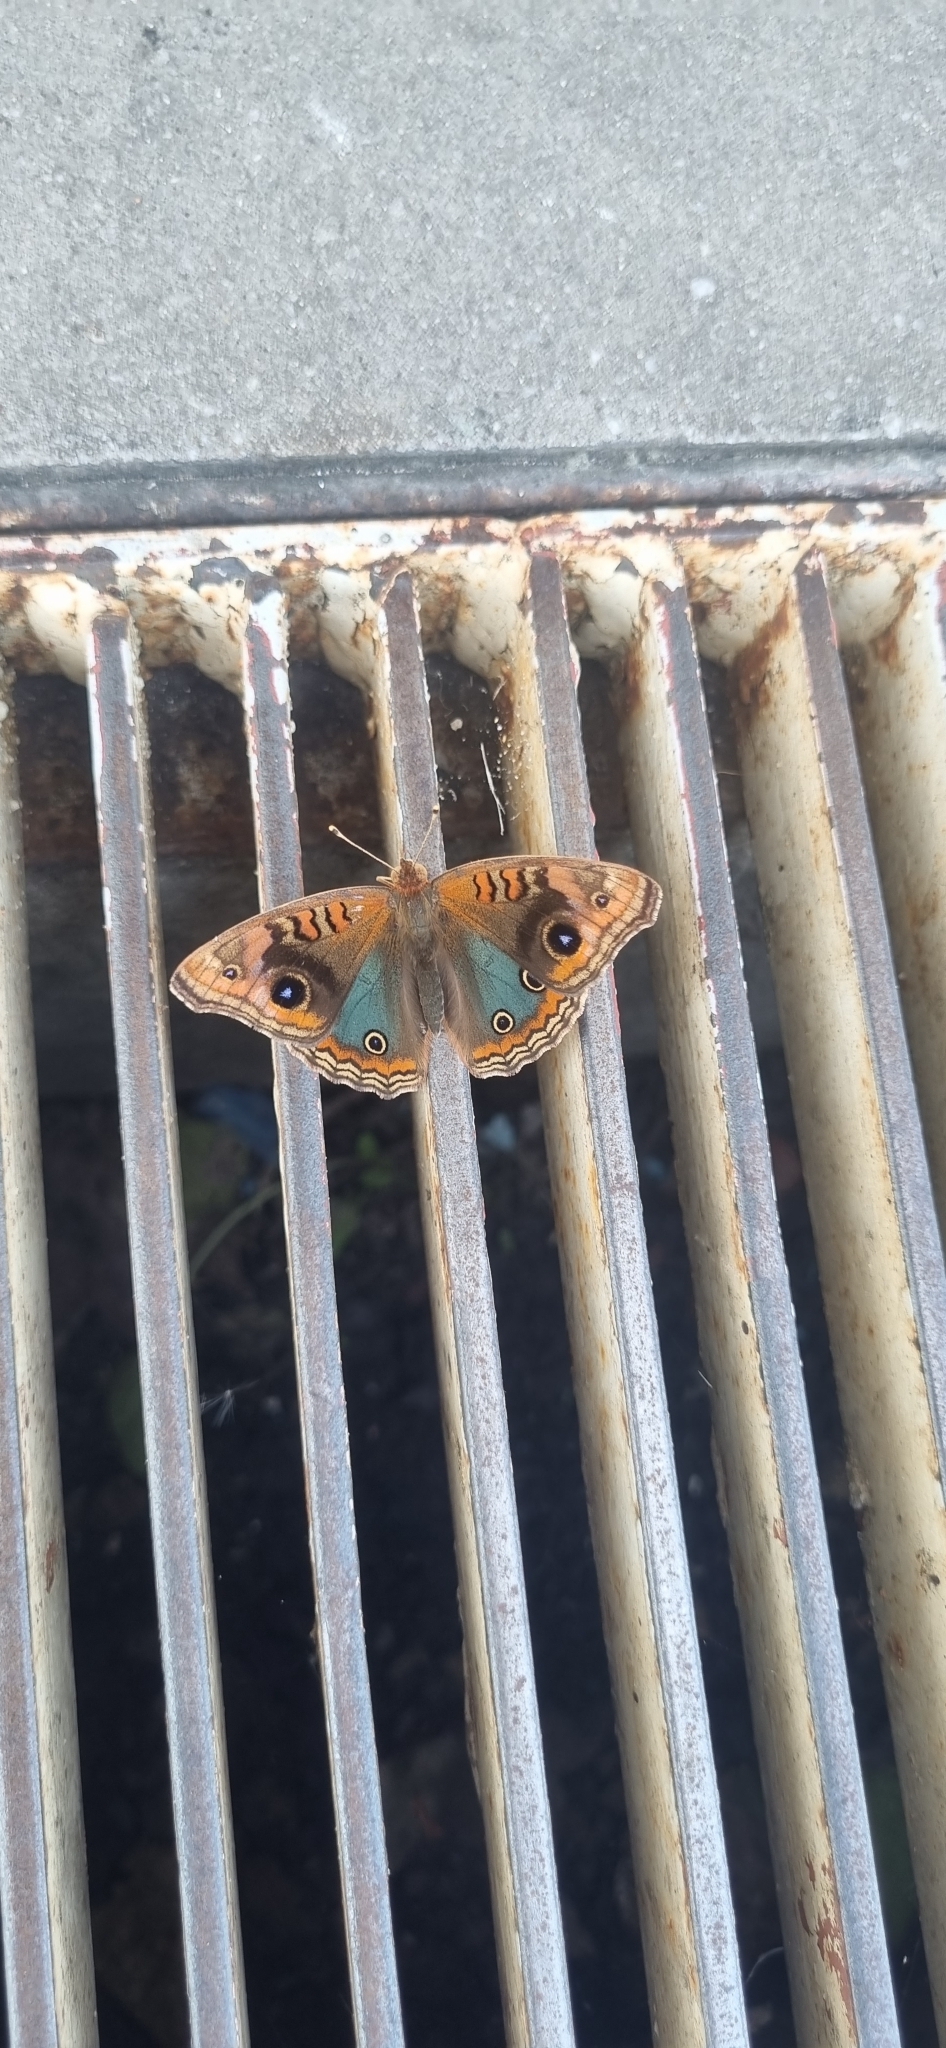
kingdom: Animalia
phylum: Arthropoda
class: Insecta
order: Lepidoptera
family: Nymphalidae
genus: Junonia
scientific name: Junonia lavinia
